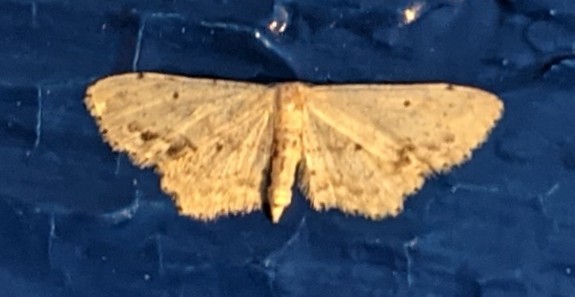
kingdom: Animalia
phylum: Arthropoda
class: Insecta
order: Lepidoptera
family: Geometridae
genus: Idaea
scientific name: Idaea dimidiata
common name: Single-dotted wave
